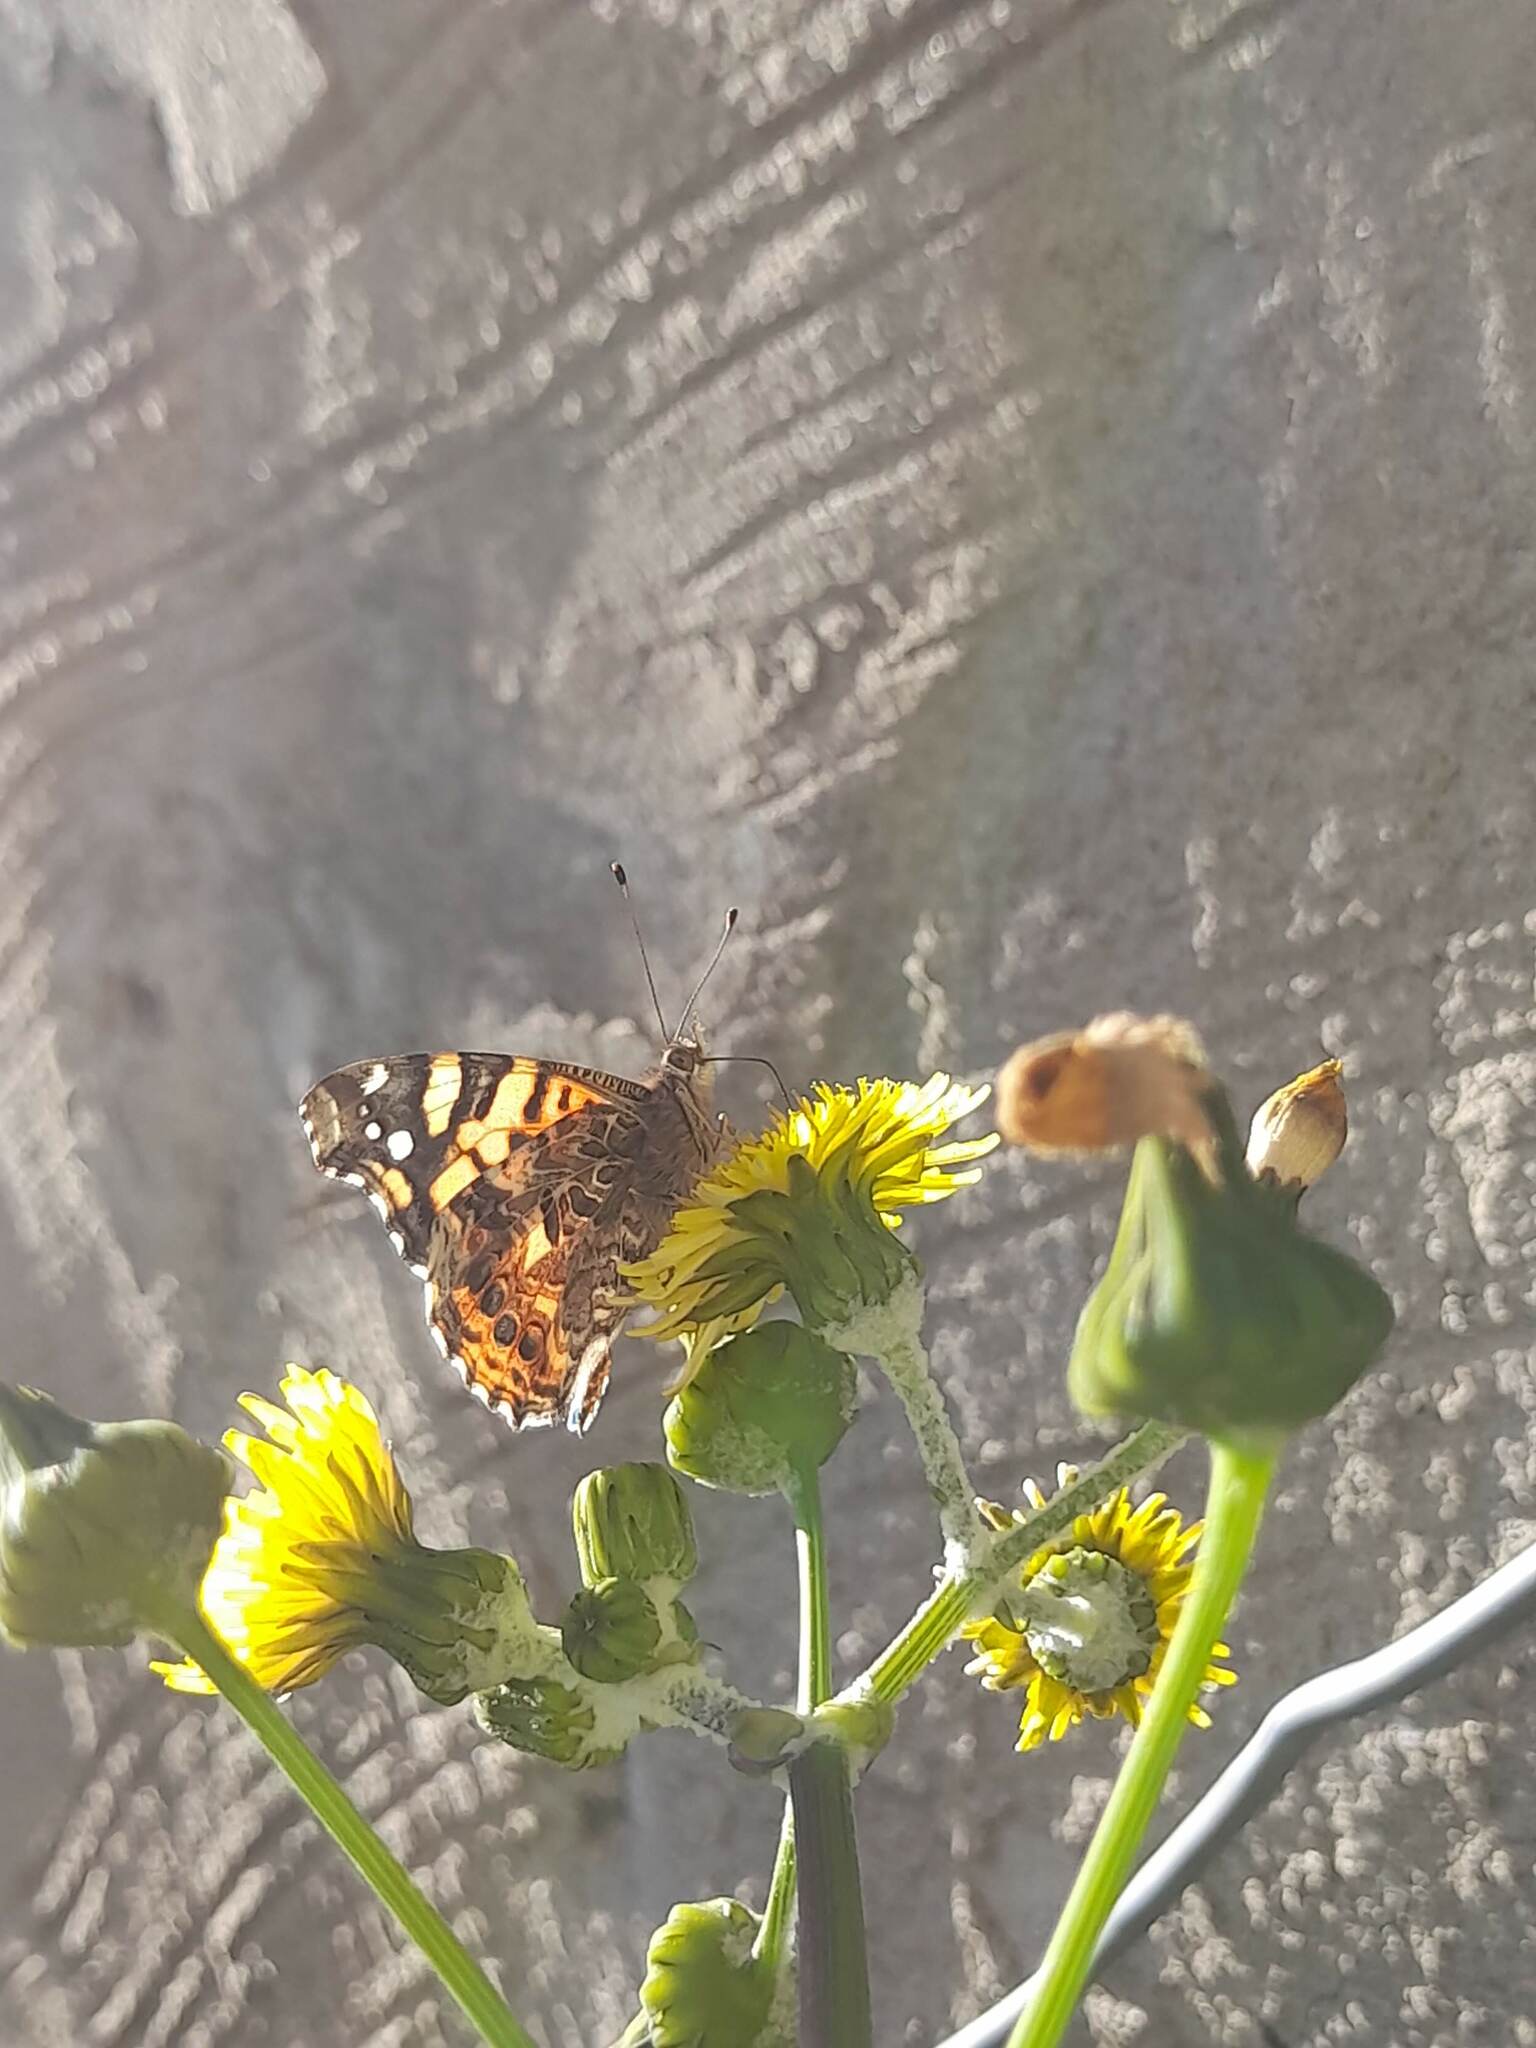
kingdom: Animalia
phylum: Arthropoda
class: Insecta
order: Lepidoptera
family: Nymphalidae
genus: Vanessa
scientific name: Vanessa carye
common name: Subtropical lady
